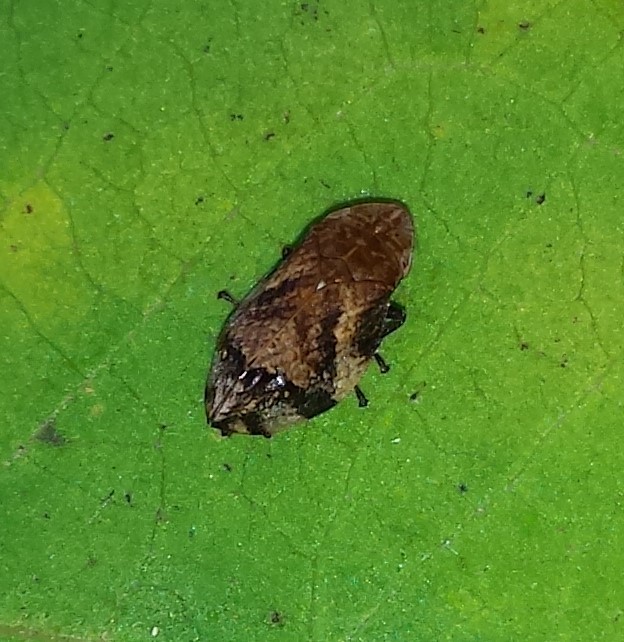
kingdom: Animalia
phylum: Arthropoda
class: Insecta
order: Hemiptera
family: Aphrophoridae
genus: Lepyronia
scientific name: Lepyronia quadrangularis
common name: Diamond-backed spittlebug
